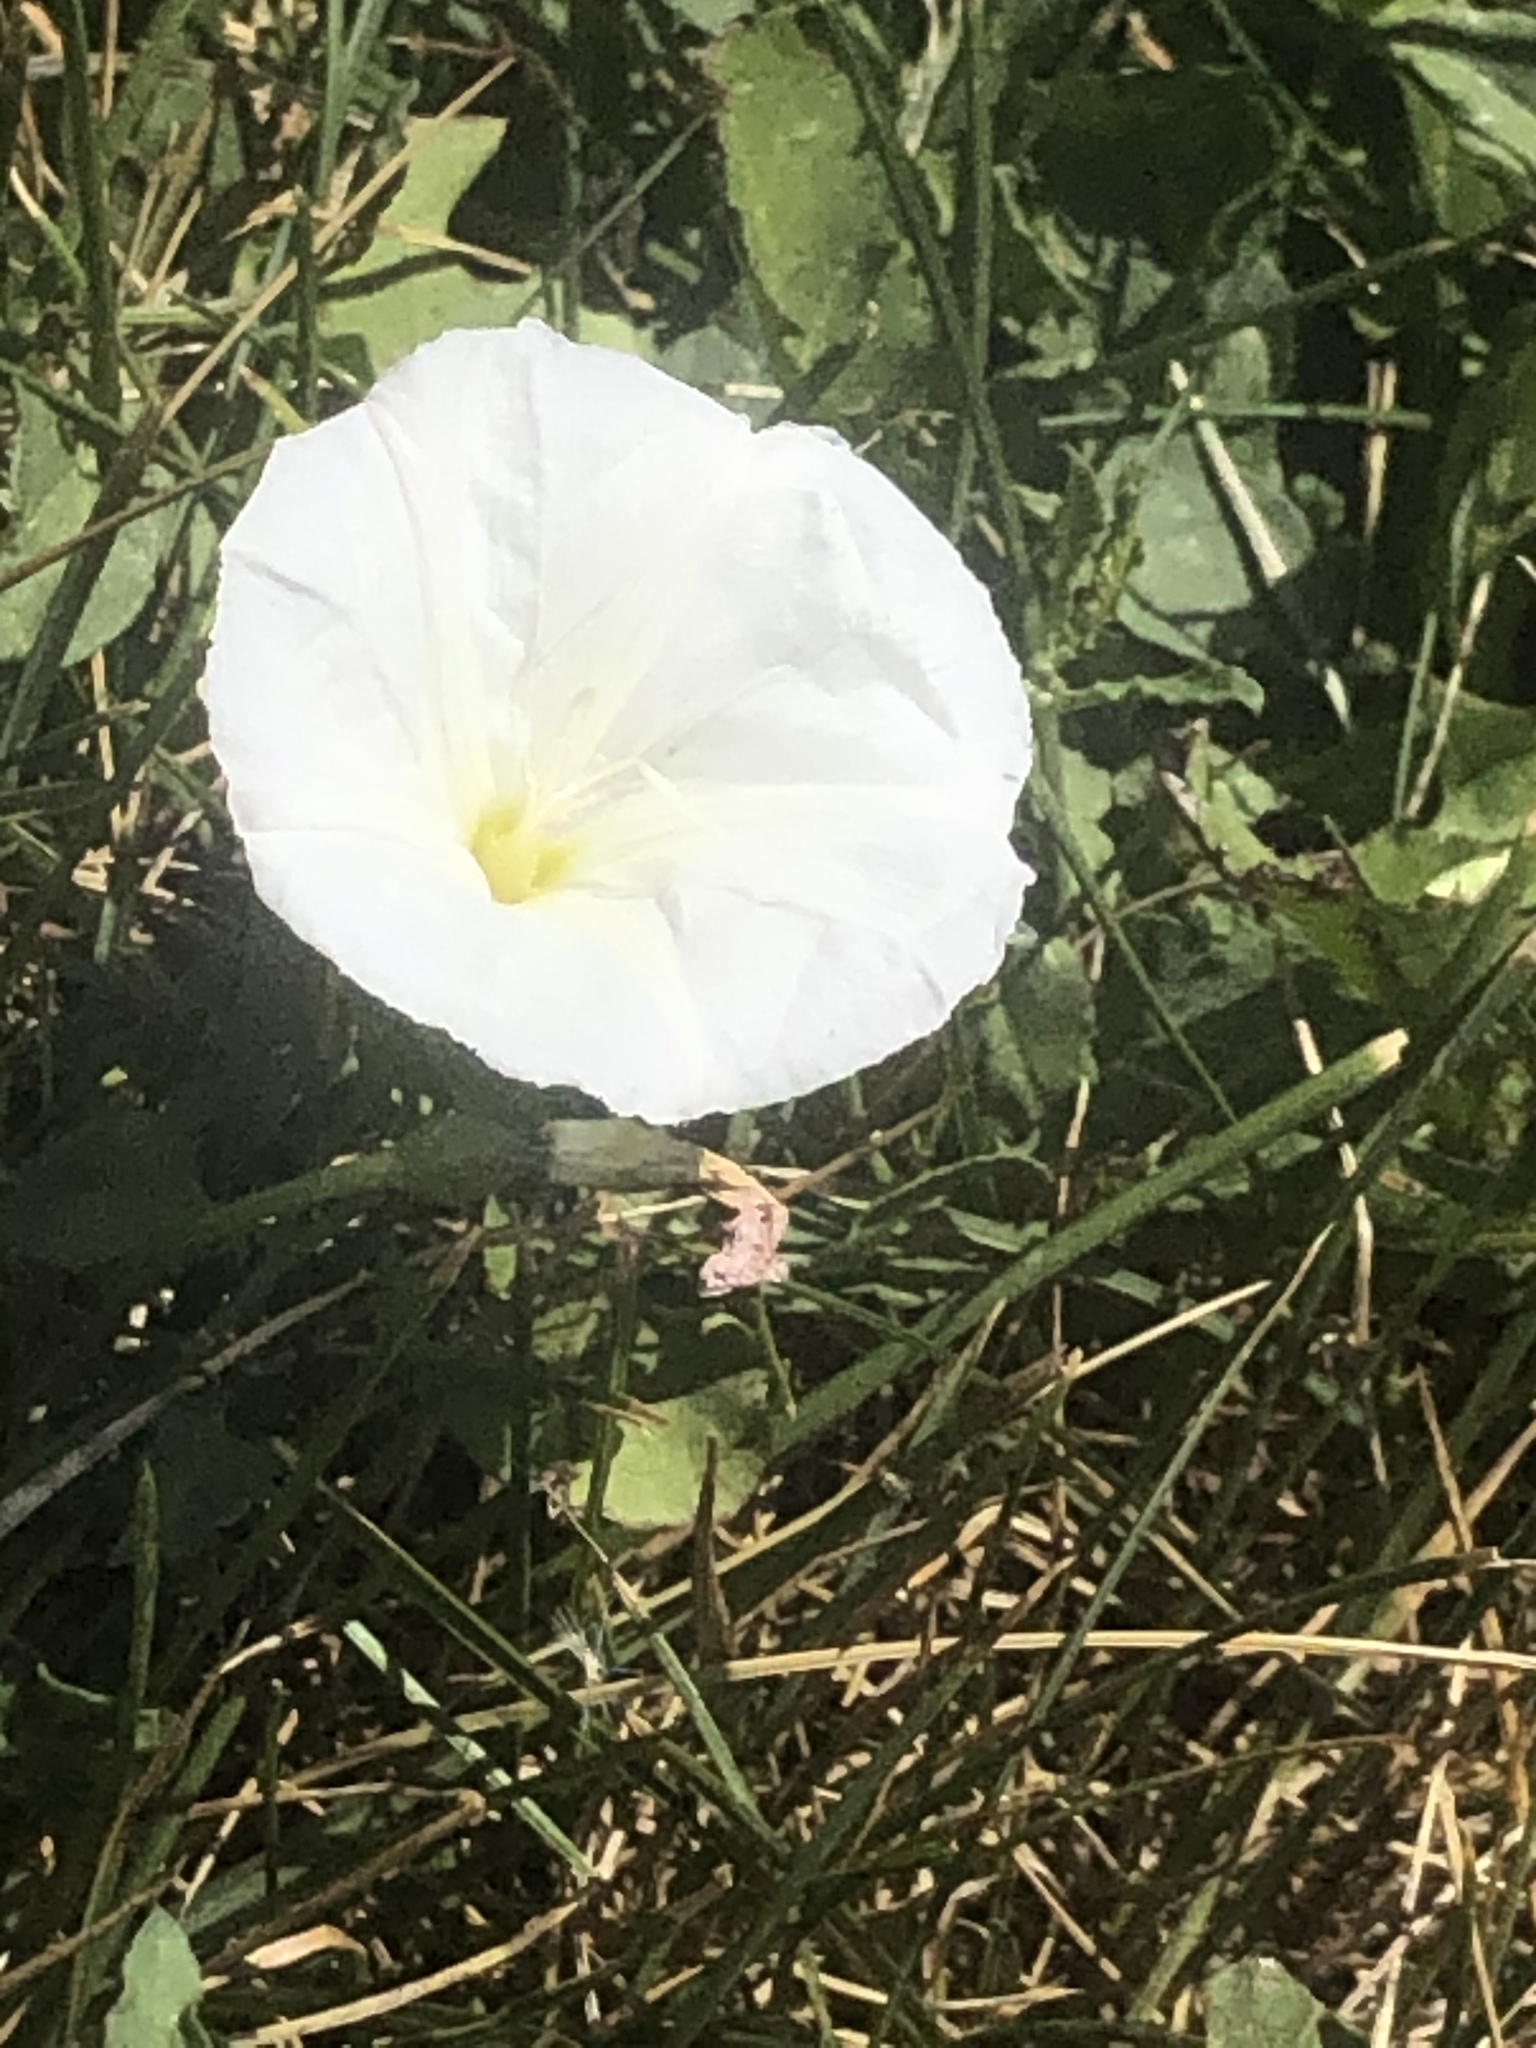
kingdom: Plantae
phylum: Tracheophyta
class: Magnoliopsida
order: Solanales
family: Convolvulaceae
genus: Convolvulus
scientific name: Convolvulus arvensis
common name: Field bindweed
